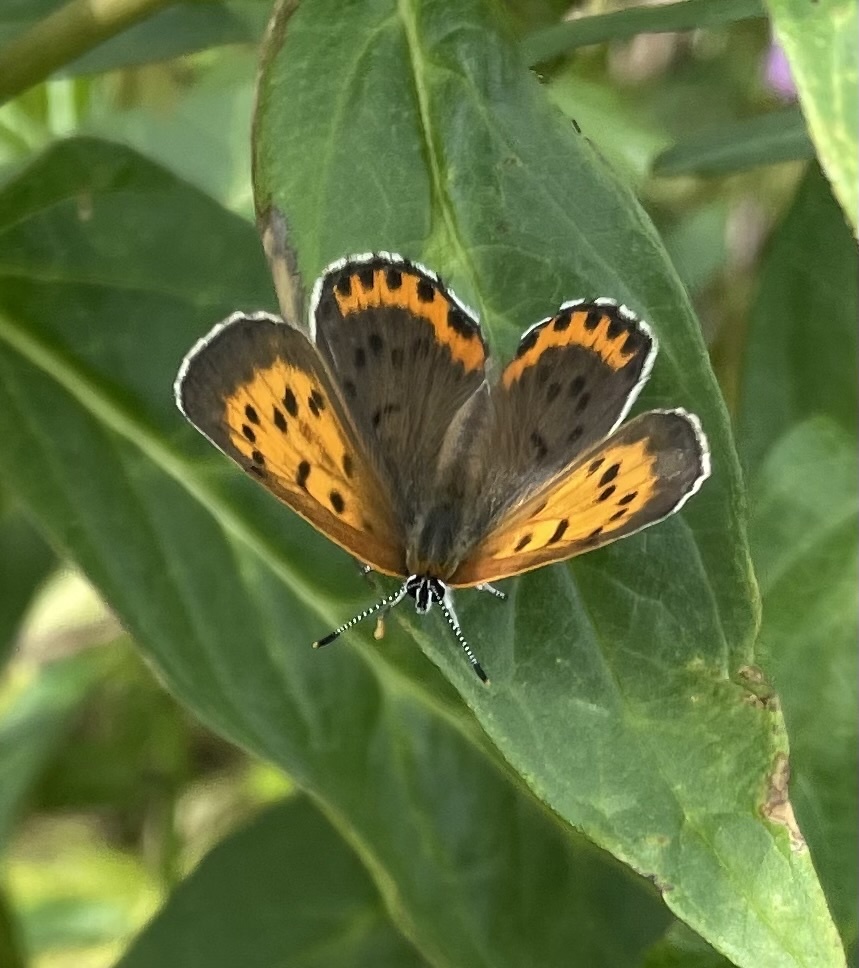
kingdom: Animalia
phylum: Arthropoda
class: Insecta
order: Lepidoptera
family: Lycaenidae
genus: Tharsalea
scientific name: Tharsalea hyllus
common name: Bronze copper
